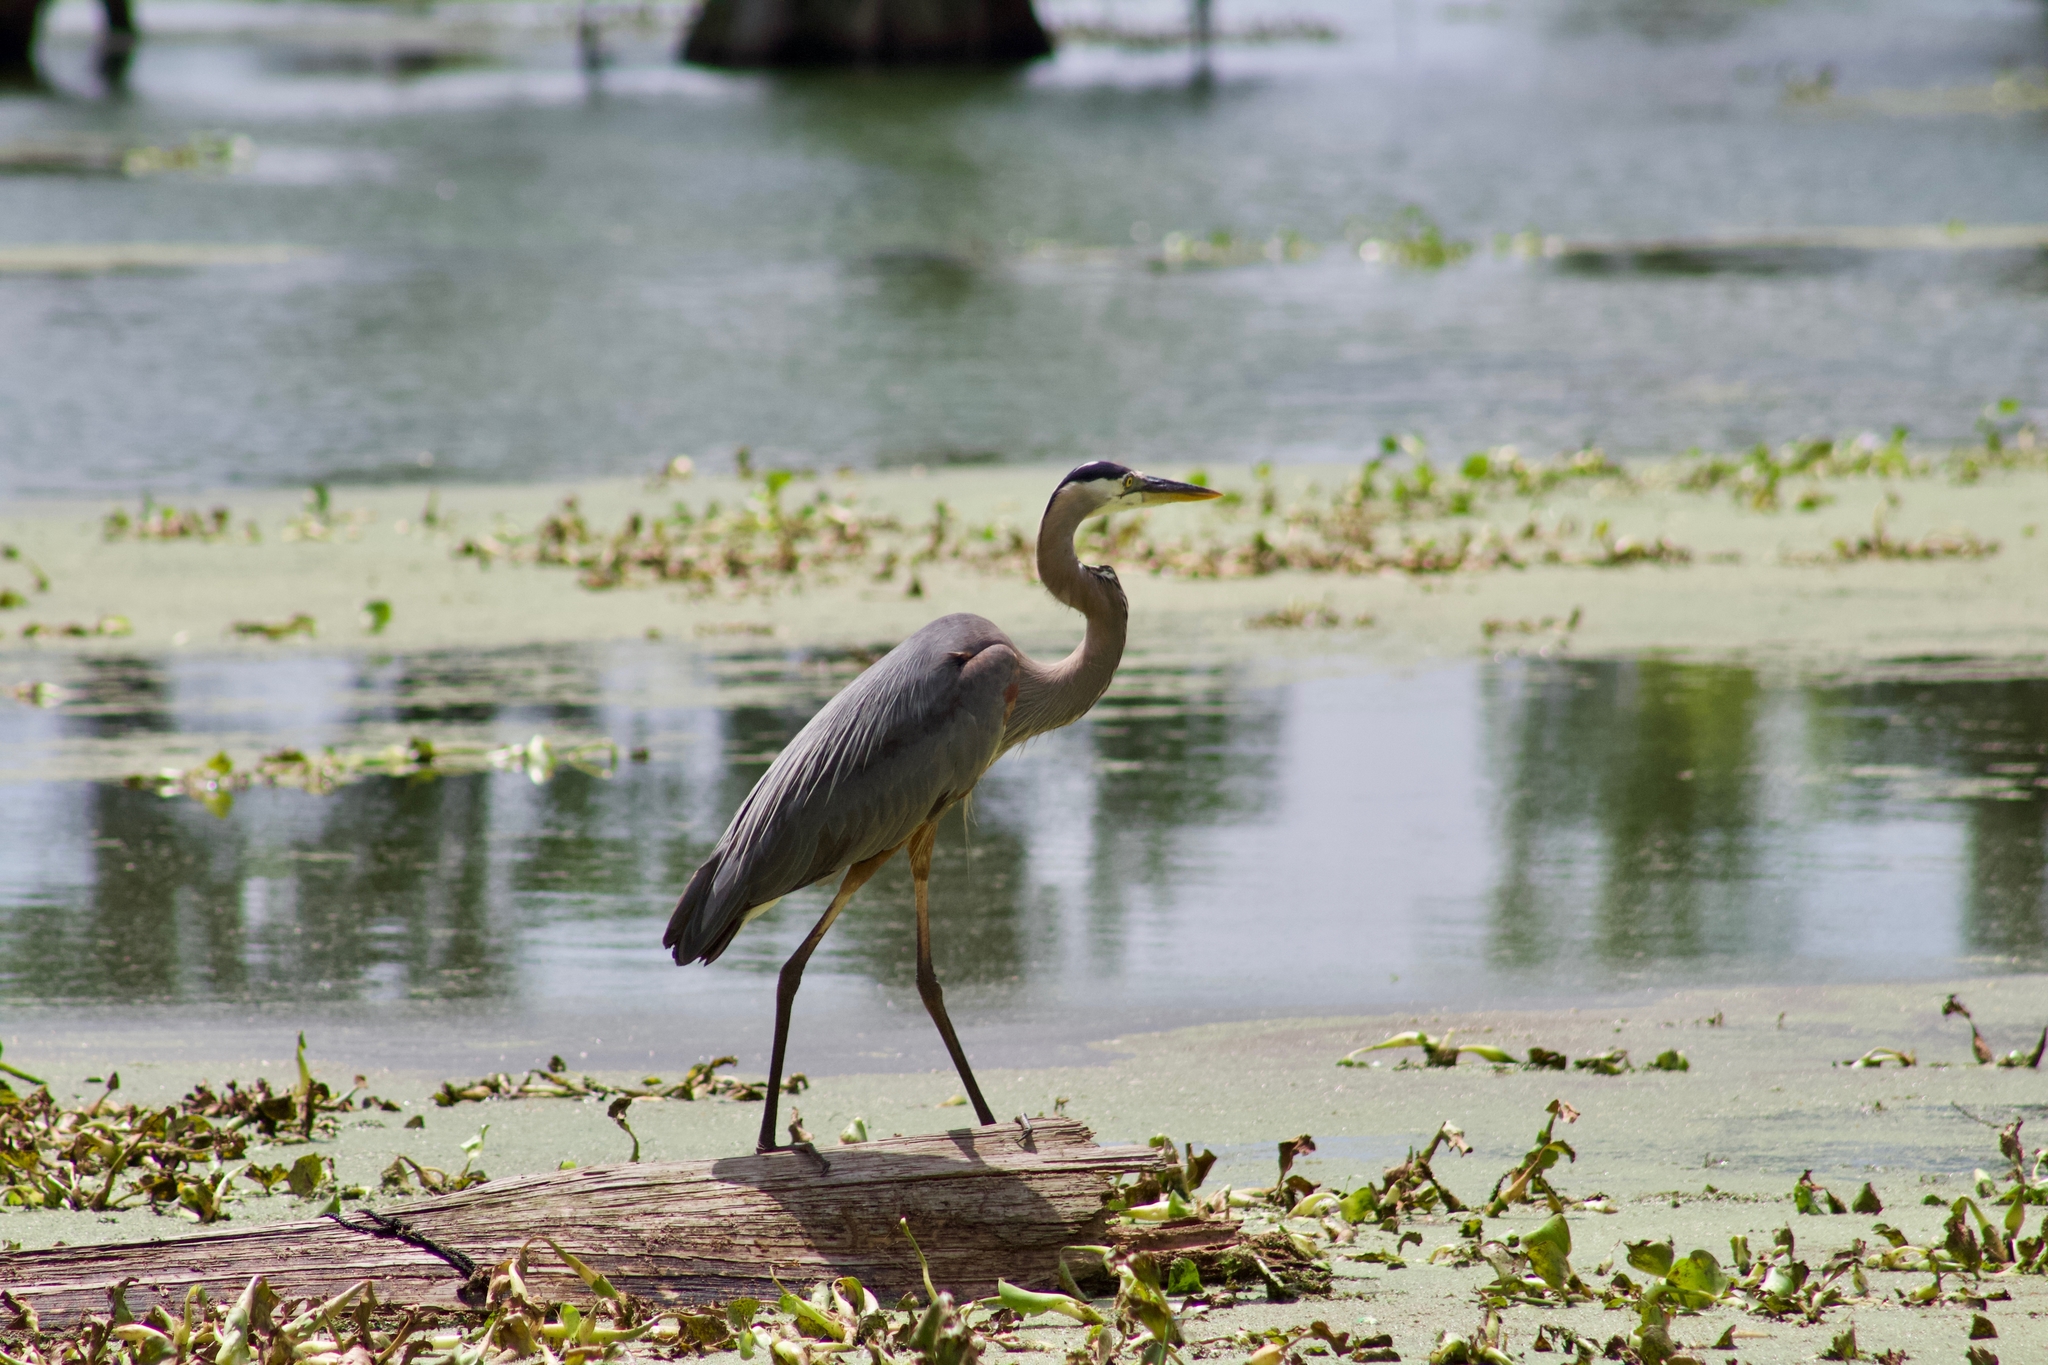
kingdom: Animalia
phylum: Chordata
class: Aves
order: Pelecaniformes
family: Ardeidae
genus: Ardea
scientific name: Ardea herodias
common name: Great blue heron
